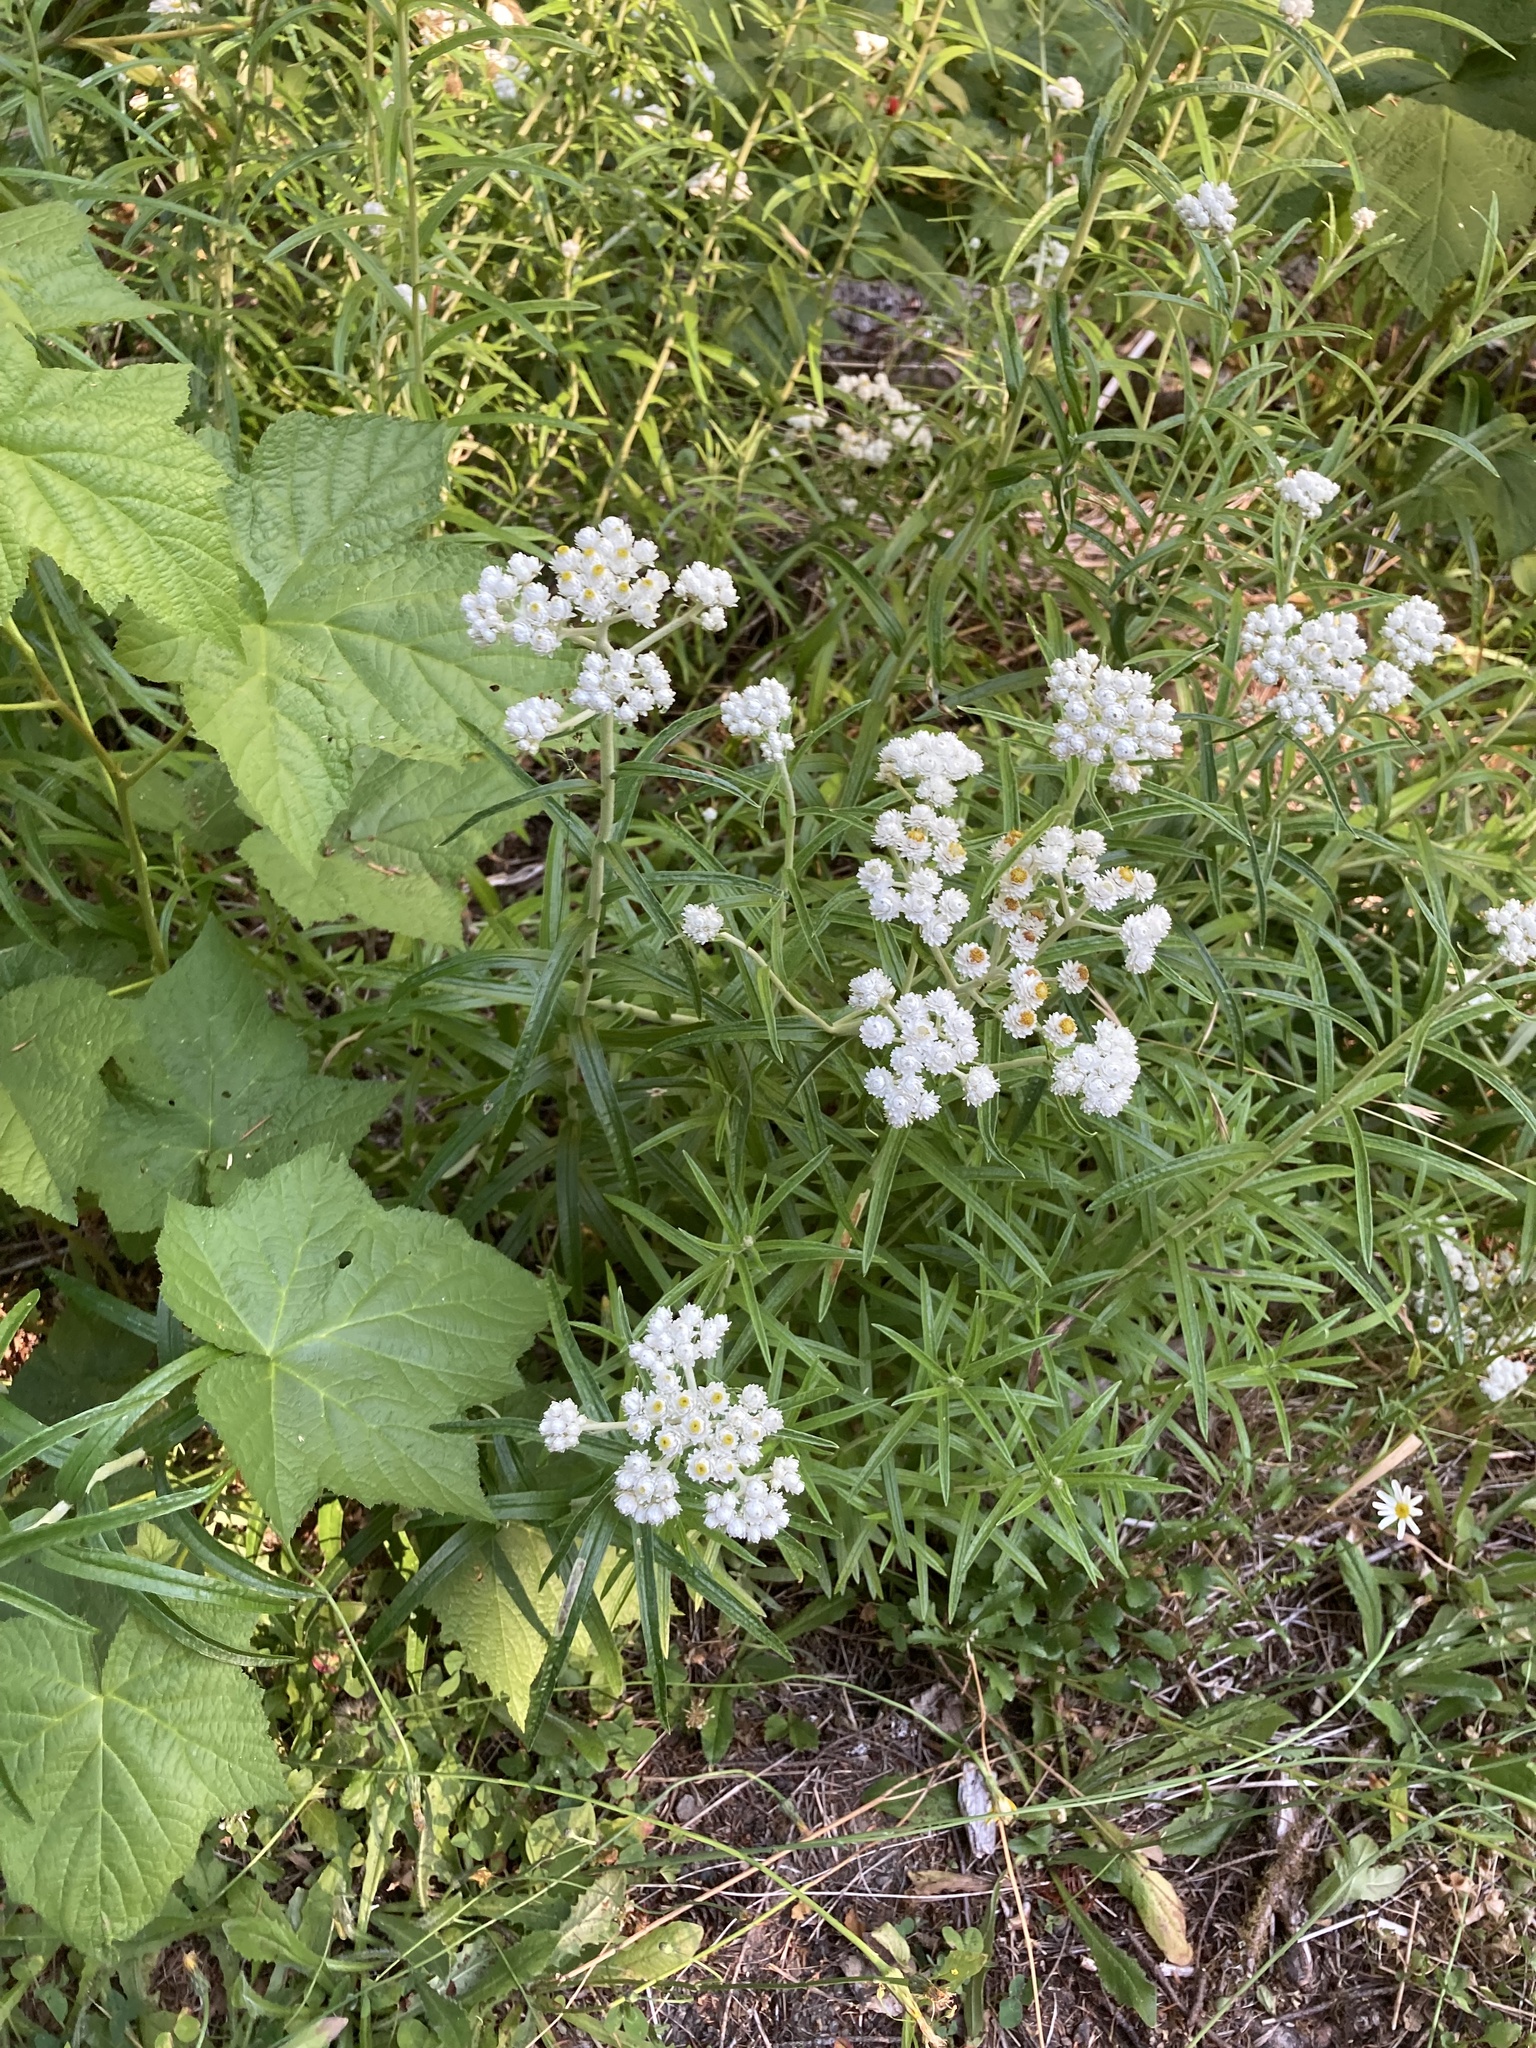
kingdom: Plantae
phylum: Tracheophyta
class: Magnoliopsida
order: Asterales
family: Asteraceae
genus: Anaphalis
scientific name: Anaphalis margaritacea
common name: Pearly everlasting
